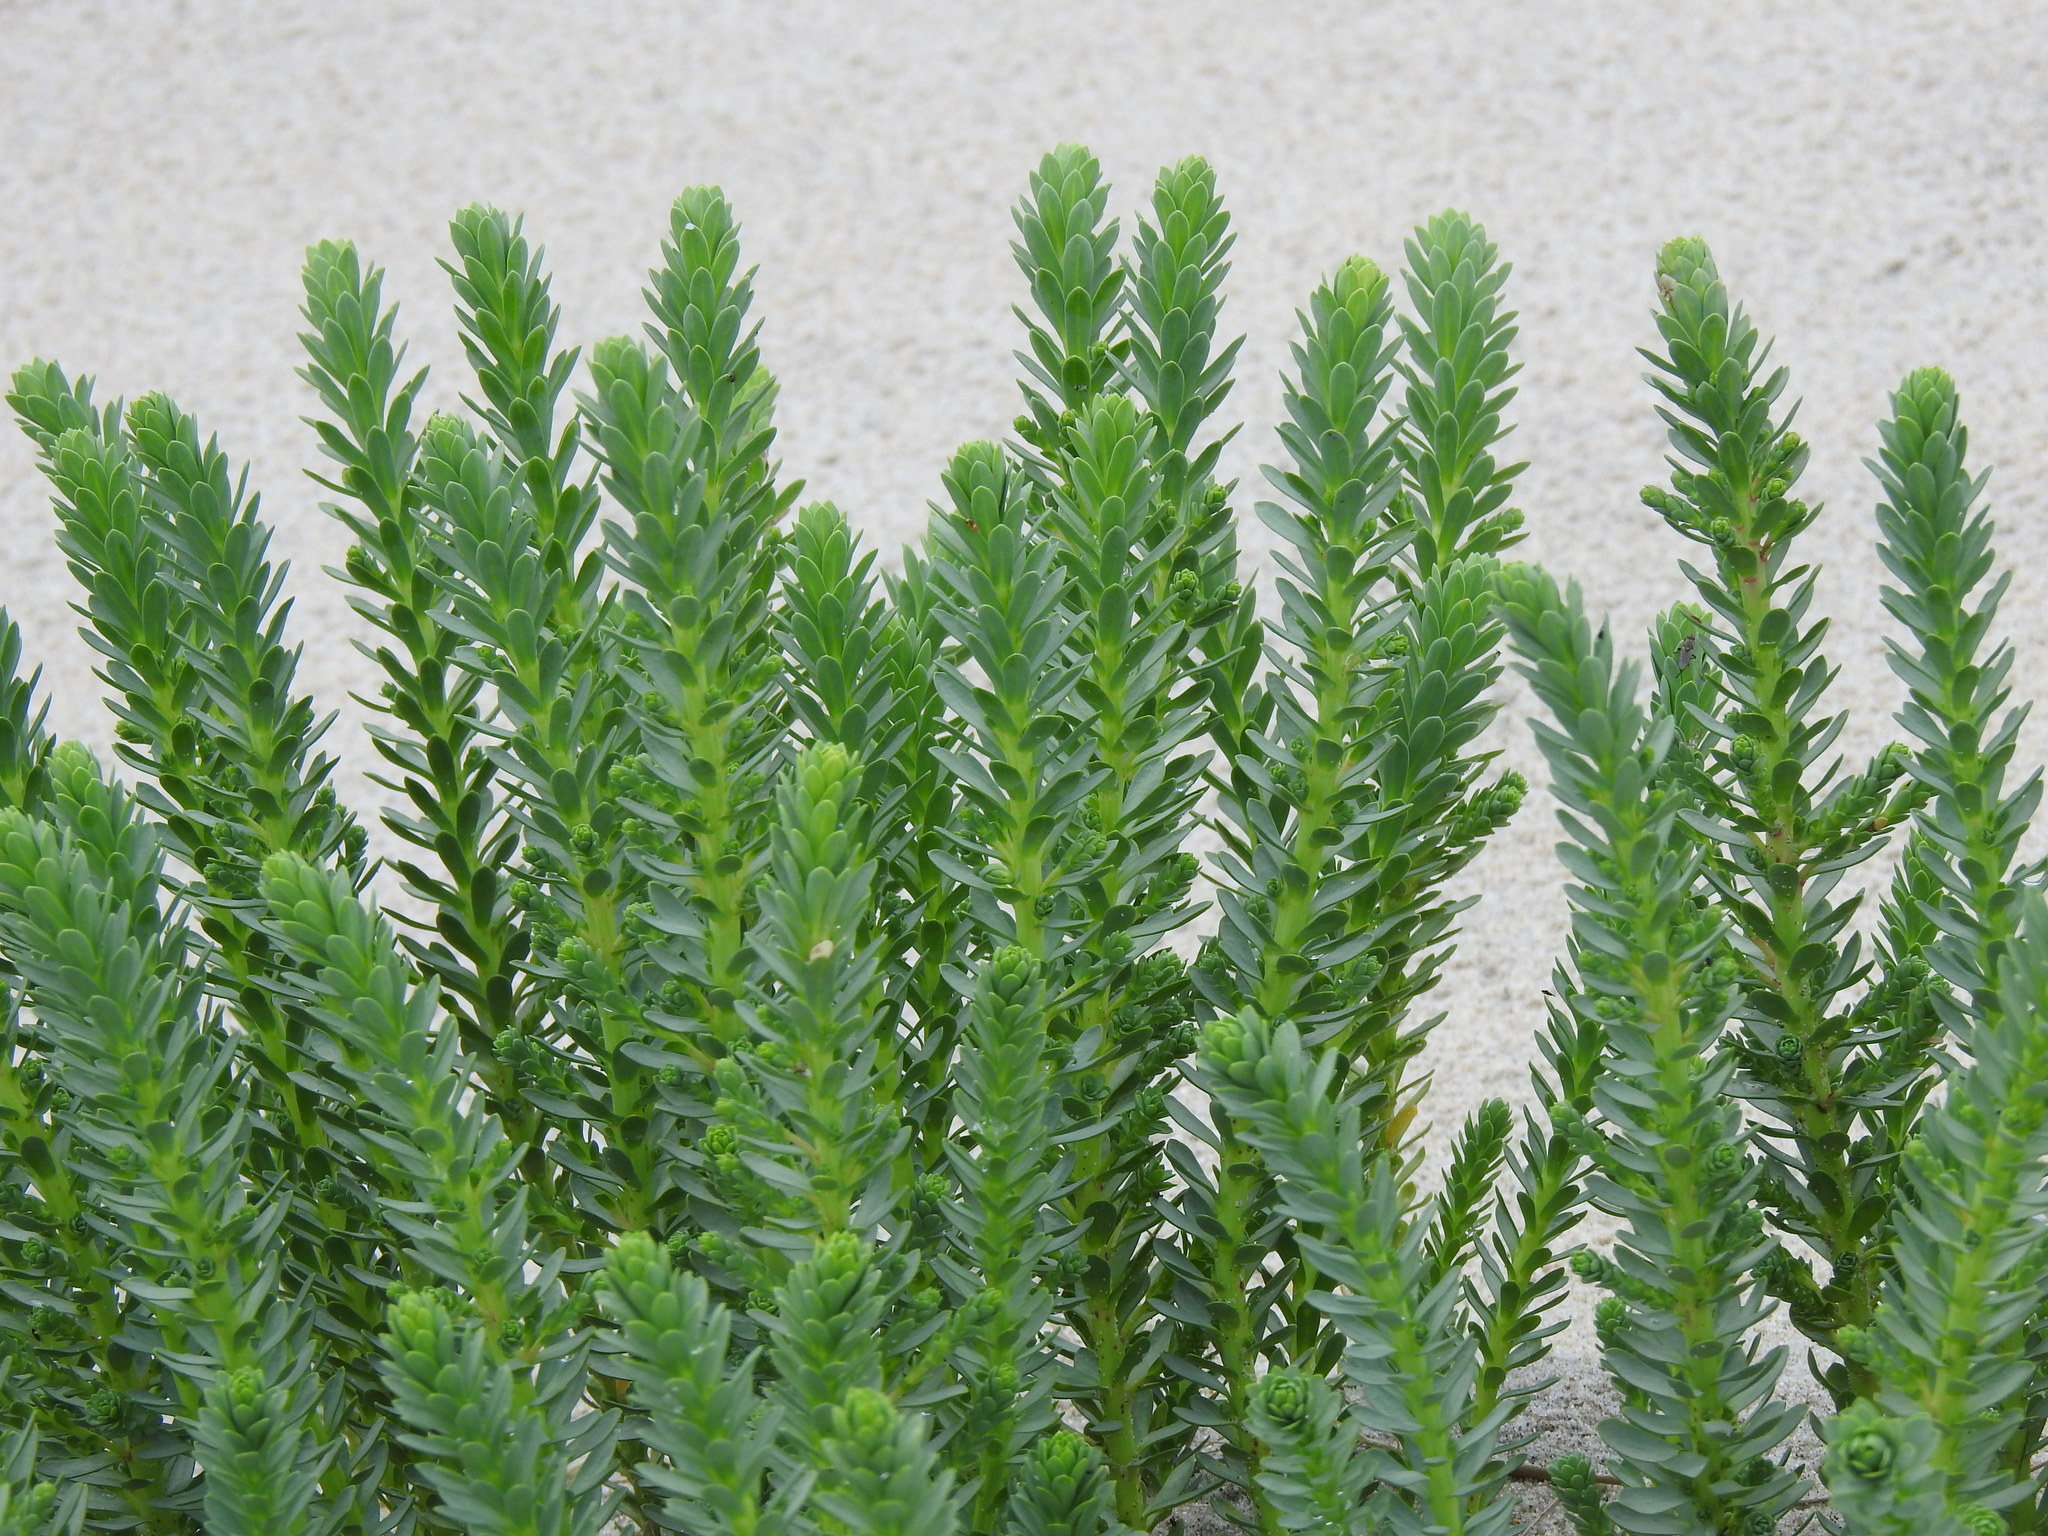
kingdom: Plantae
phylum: Tracheophyta
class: Magnoliopsida
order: Malpighiales
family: Euphorbiaceae
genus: Euphorbia
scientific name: Euphorbia paralias
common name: Sea spurge
